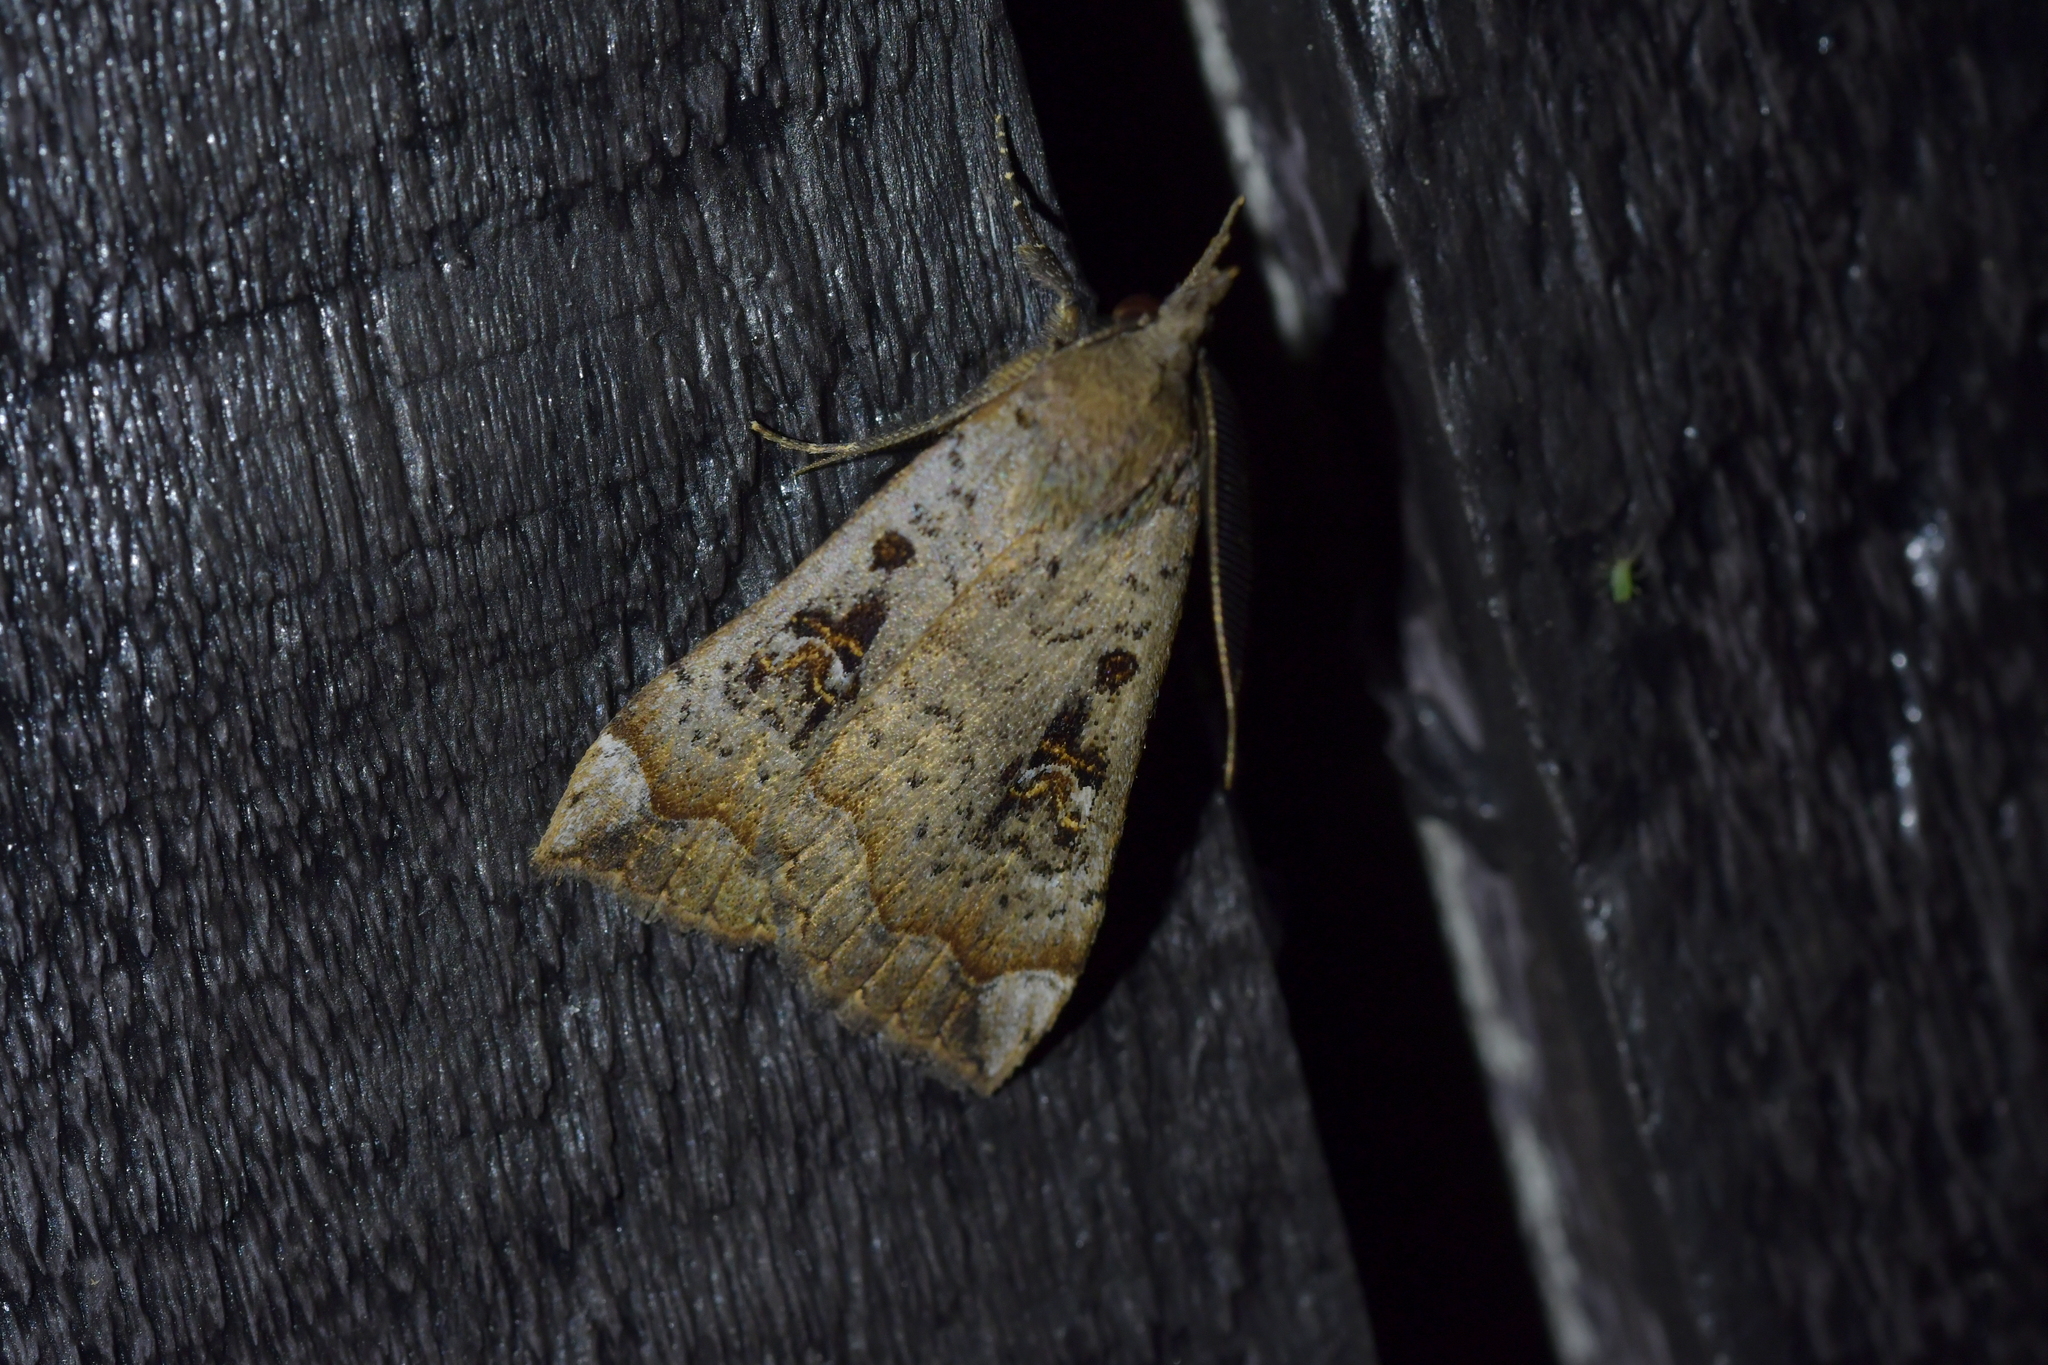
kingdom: Animalia
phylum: Arthropoda
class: Insecta
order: Lepidoptera
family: Erebidae
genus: Rhapsa
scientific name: Rhapsa scotosialis
